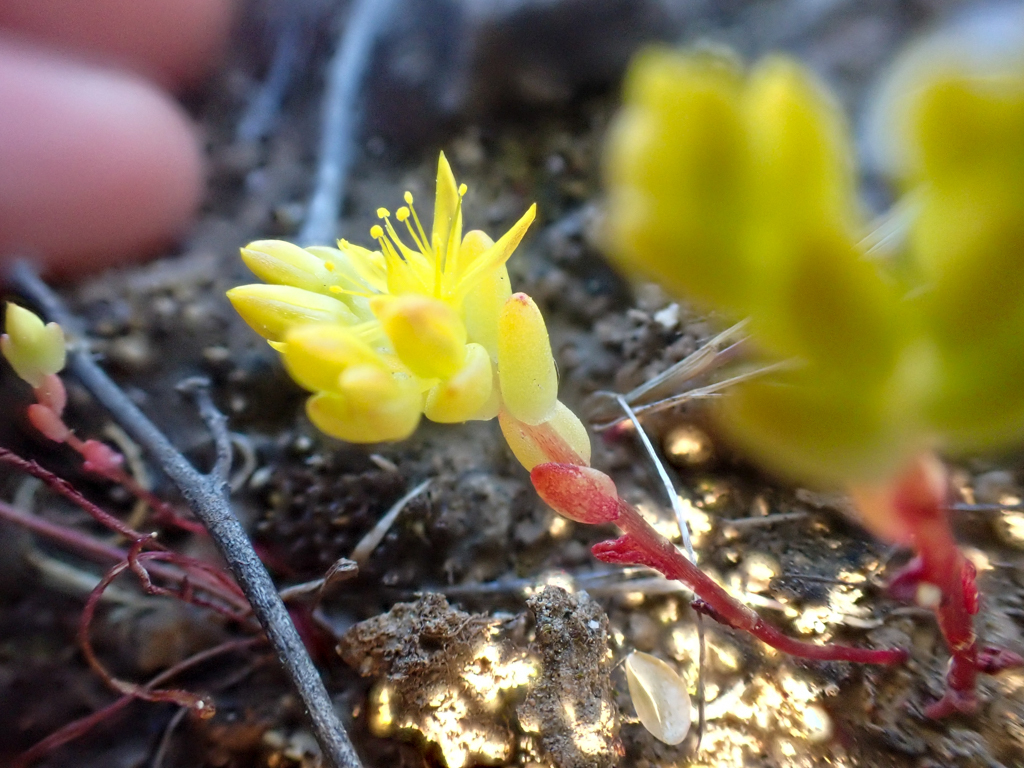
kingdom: Plantae
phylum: Tracheophyta
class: Magnoliopsida
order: Saxifragales
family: Crassulaceae
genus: Sedella
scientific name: Sedella pumila
